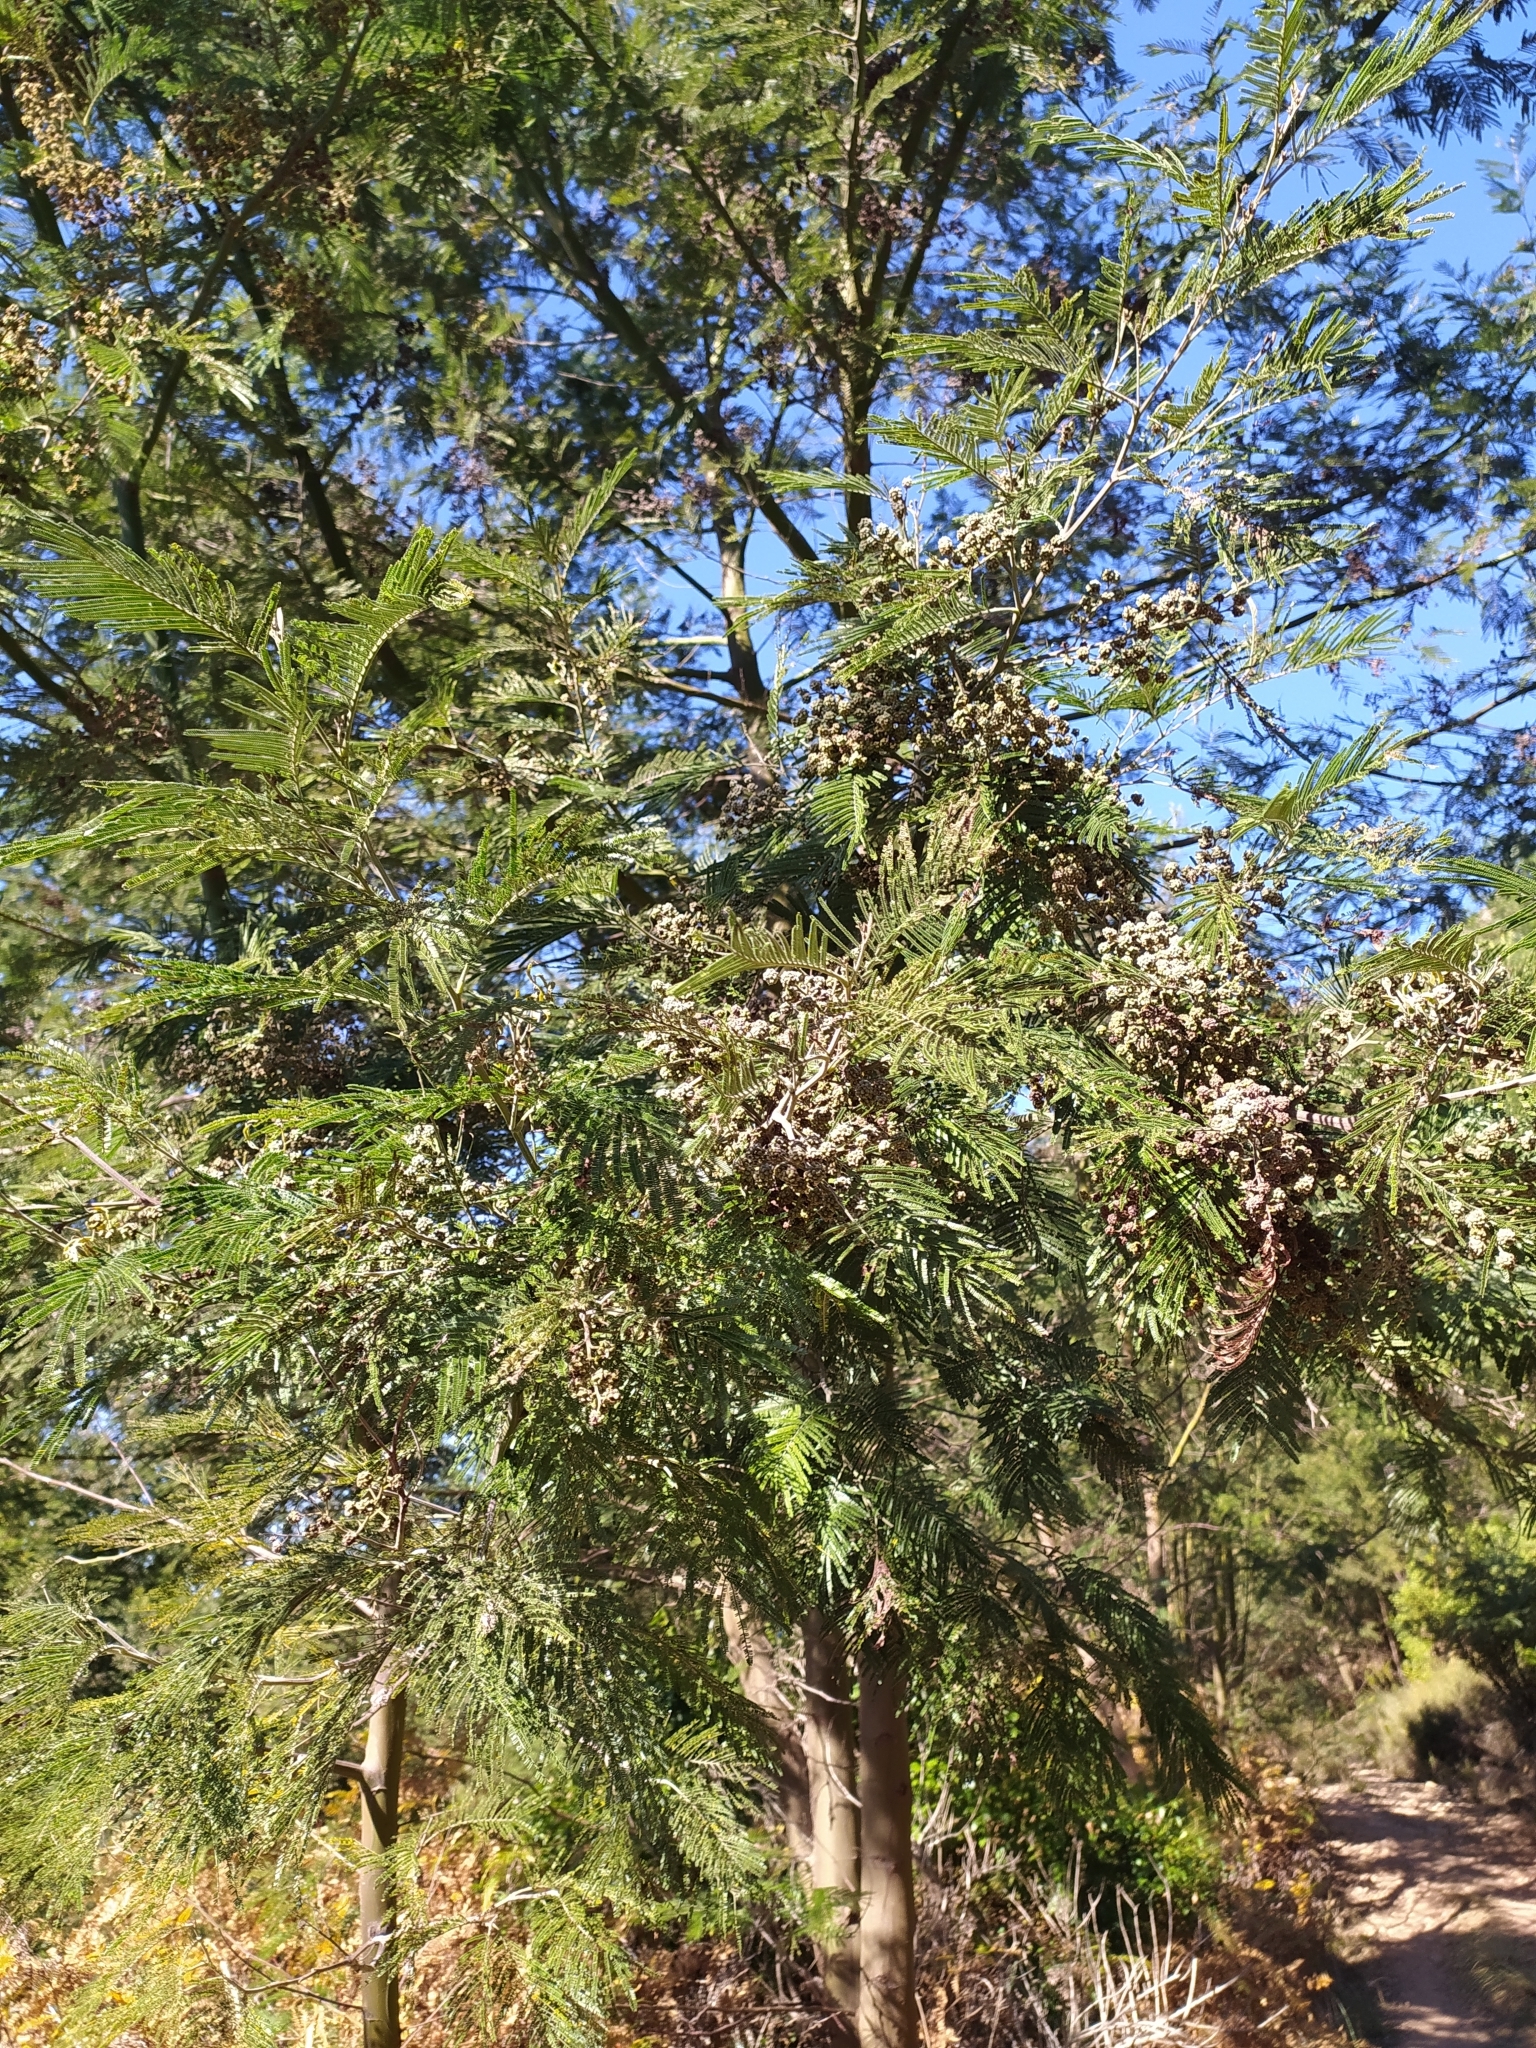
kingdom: Plantae
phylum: Tracheophyta
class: Magnoliopsida
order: Fabales
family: Fabaceae
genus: Acacia
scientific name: Acacia mearnsii
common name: Black wattle
